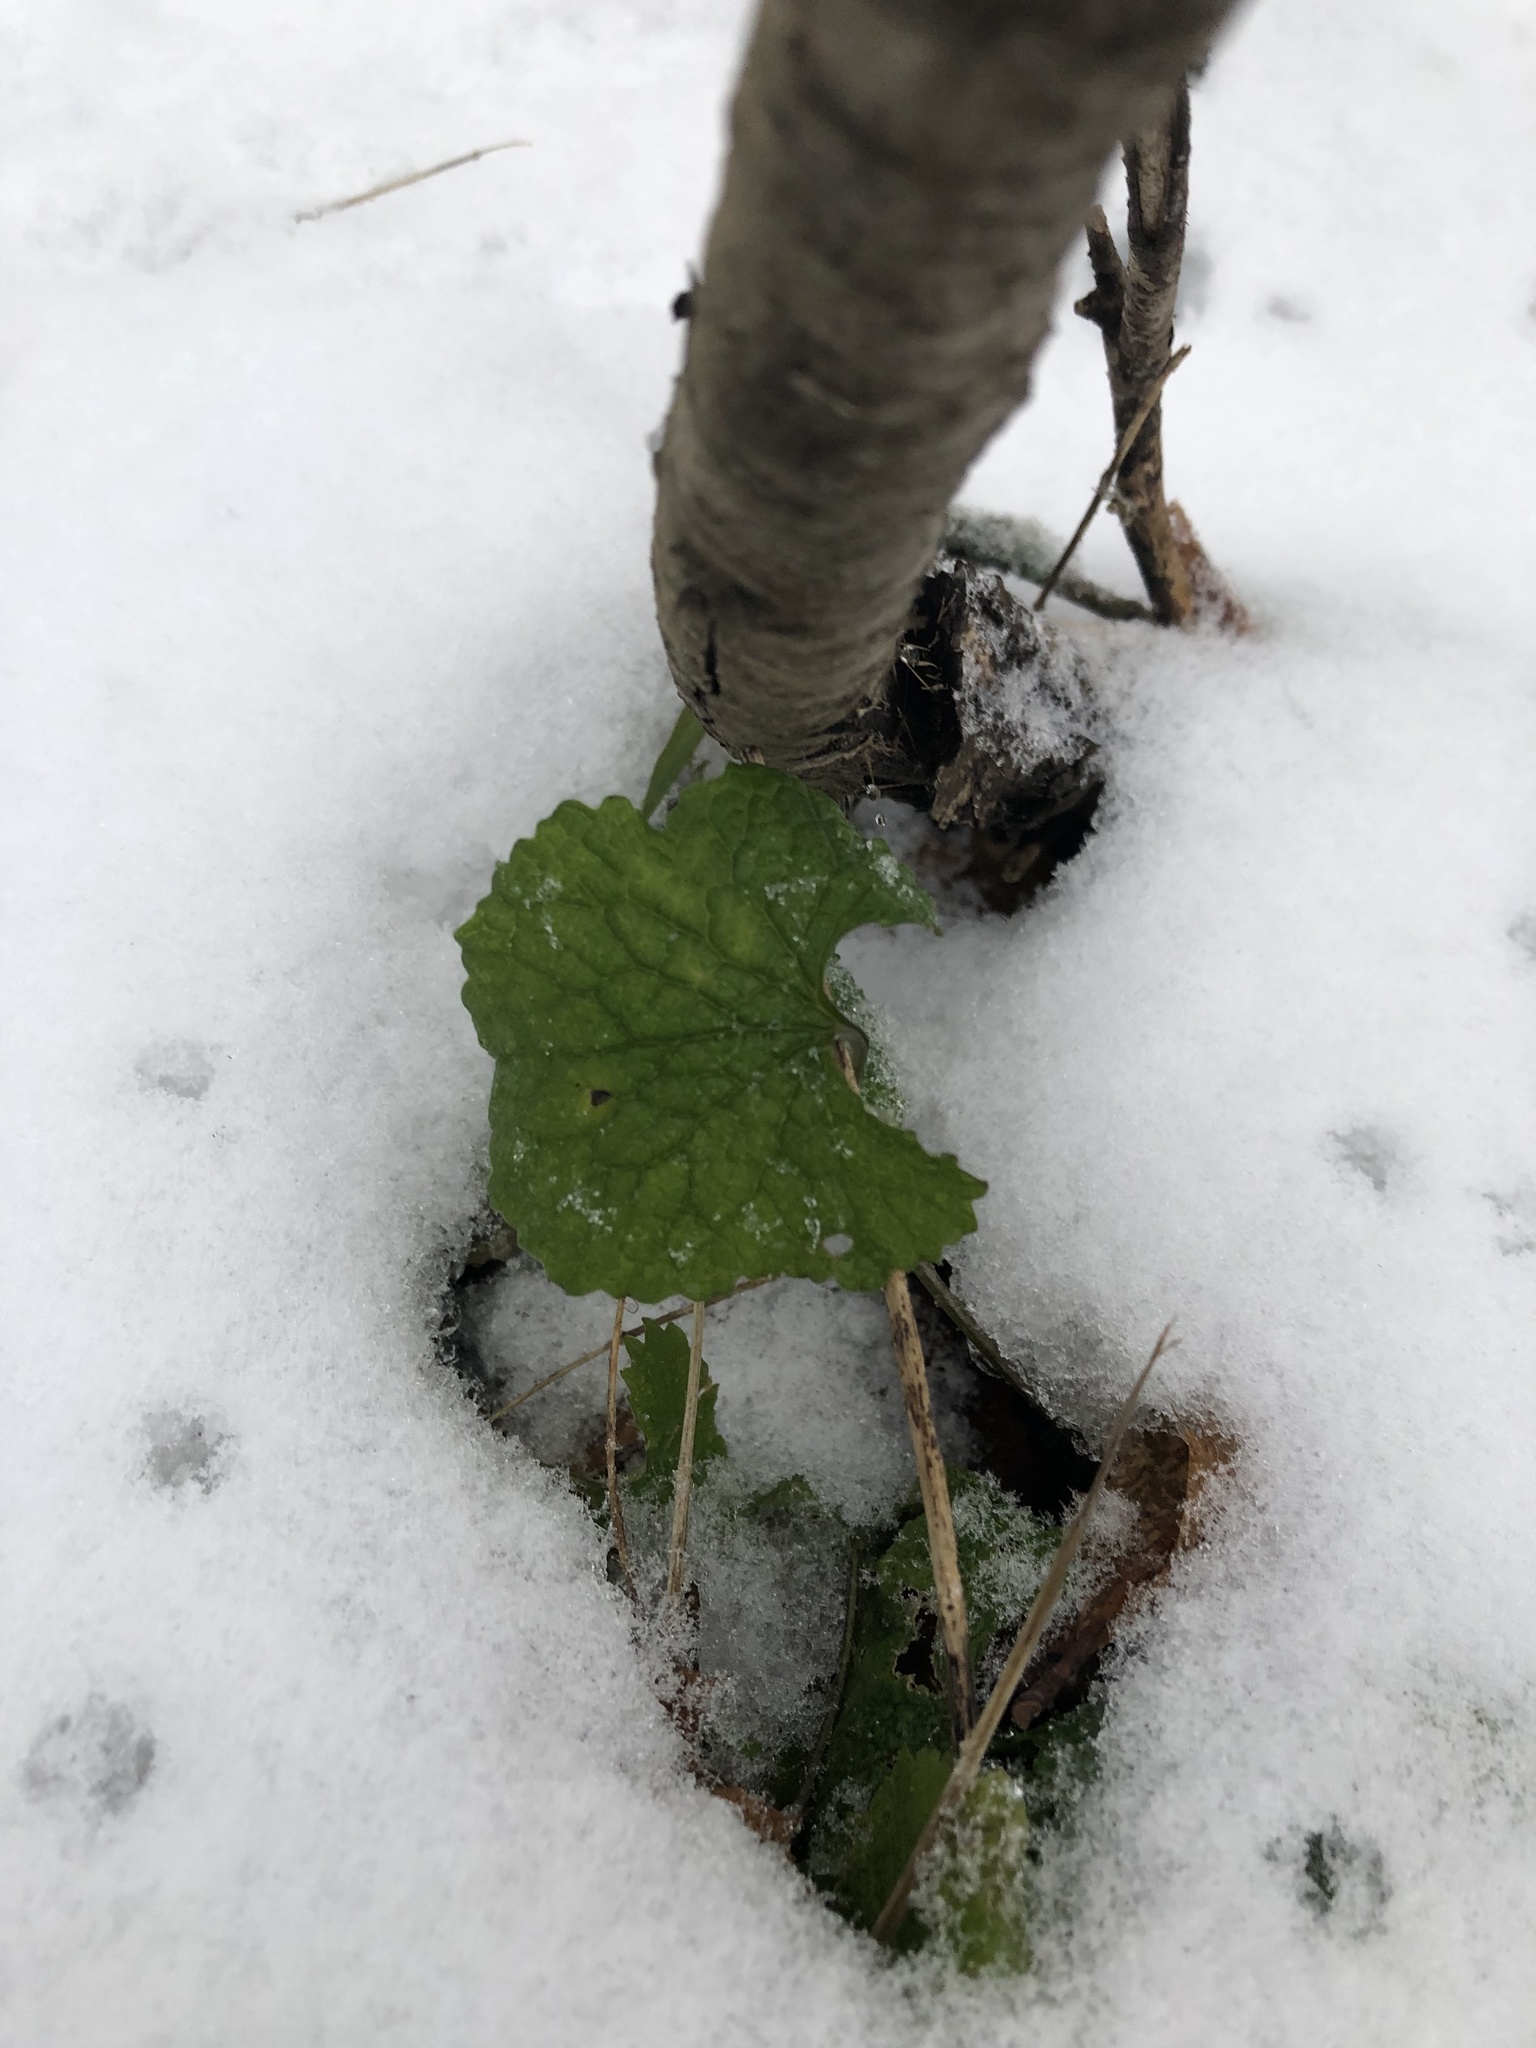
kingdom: Plantae
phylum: Tracheophyta
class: Magnoliopsida
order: Brassicales
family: Brassicaceae
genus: Alliaria
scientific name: Alliaria petiolata
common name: Garlic mustard
